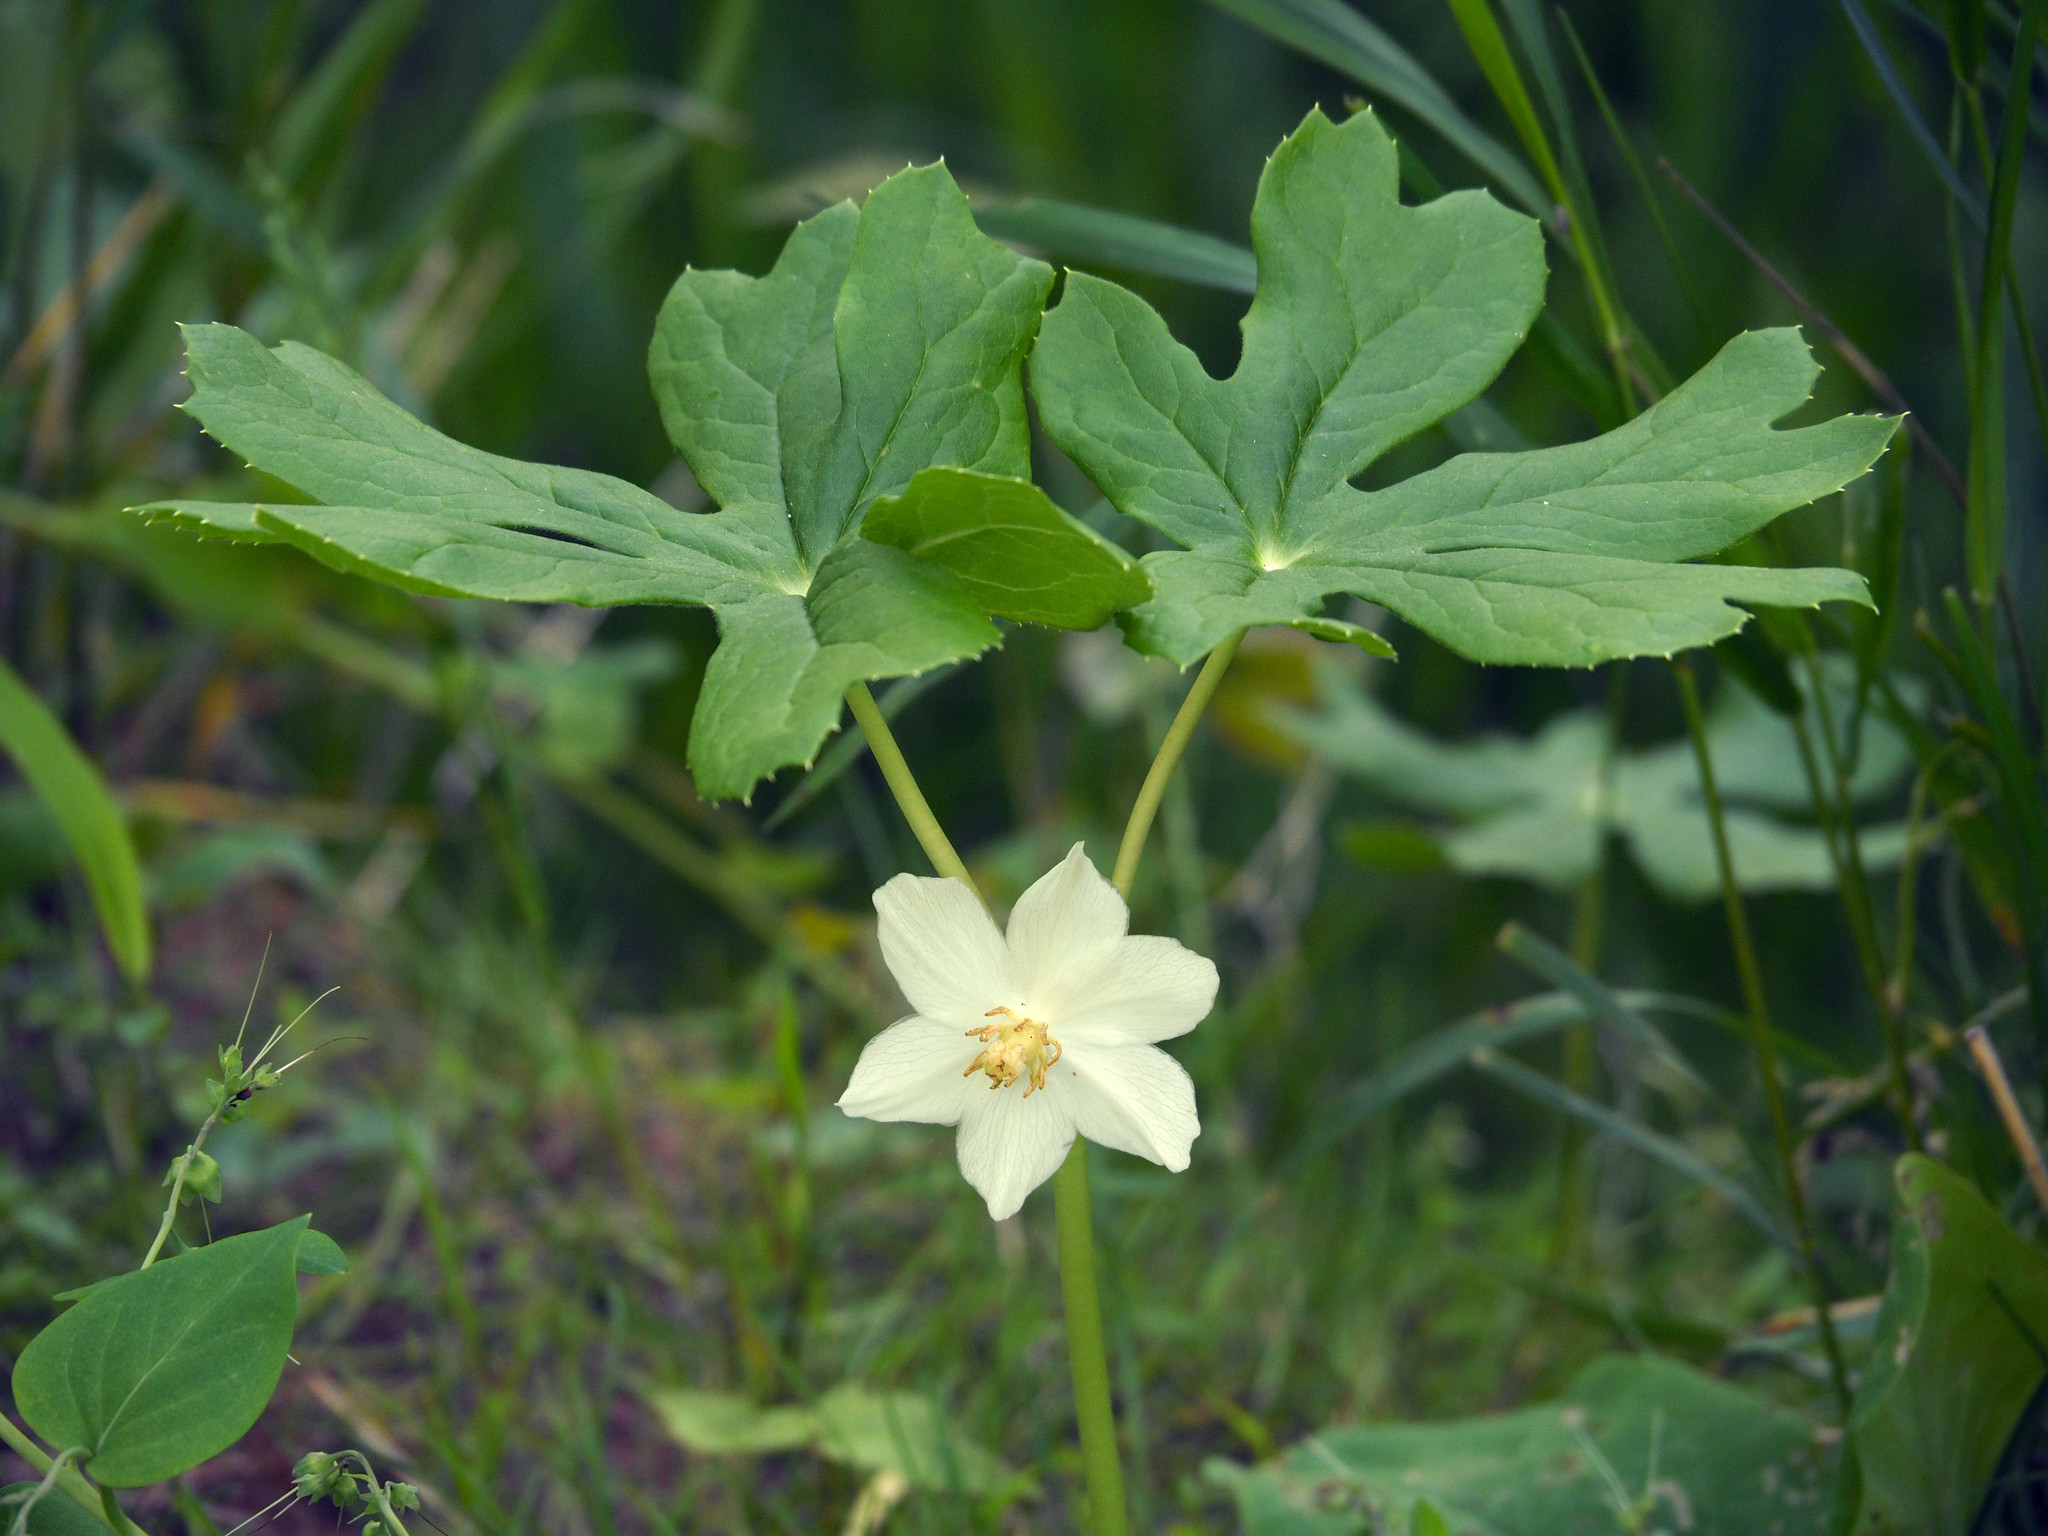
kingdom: Plantae
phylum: Tracheophyta
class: Magnoliopsida
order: Ranunculales
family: Berberidaceae
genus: Podophyllum
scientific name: Podophyllum peltatum
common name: Wild mandrake
